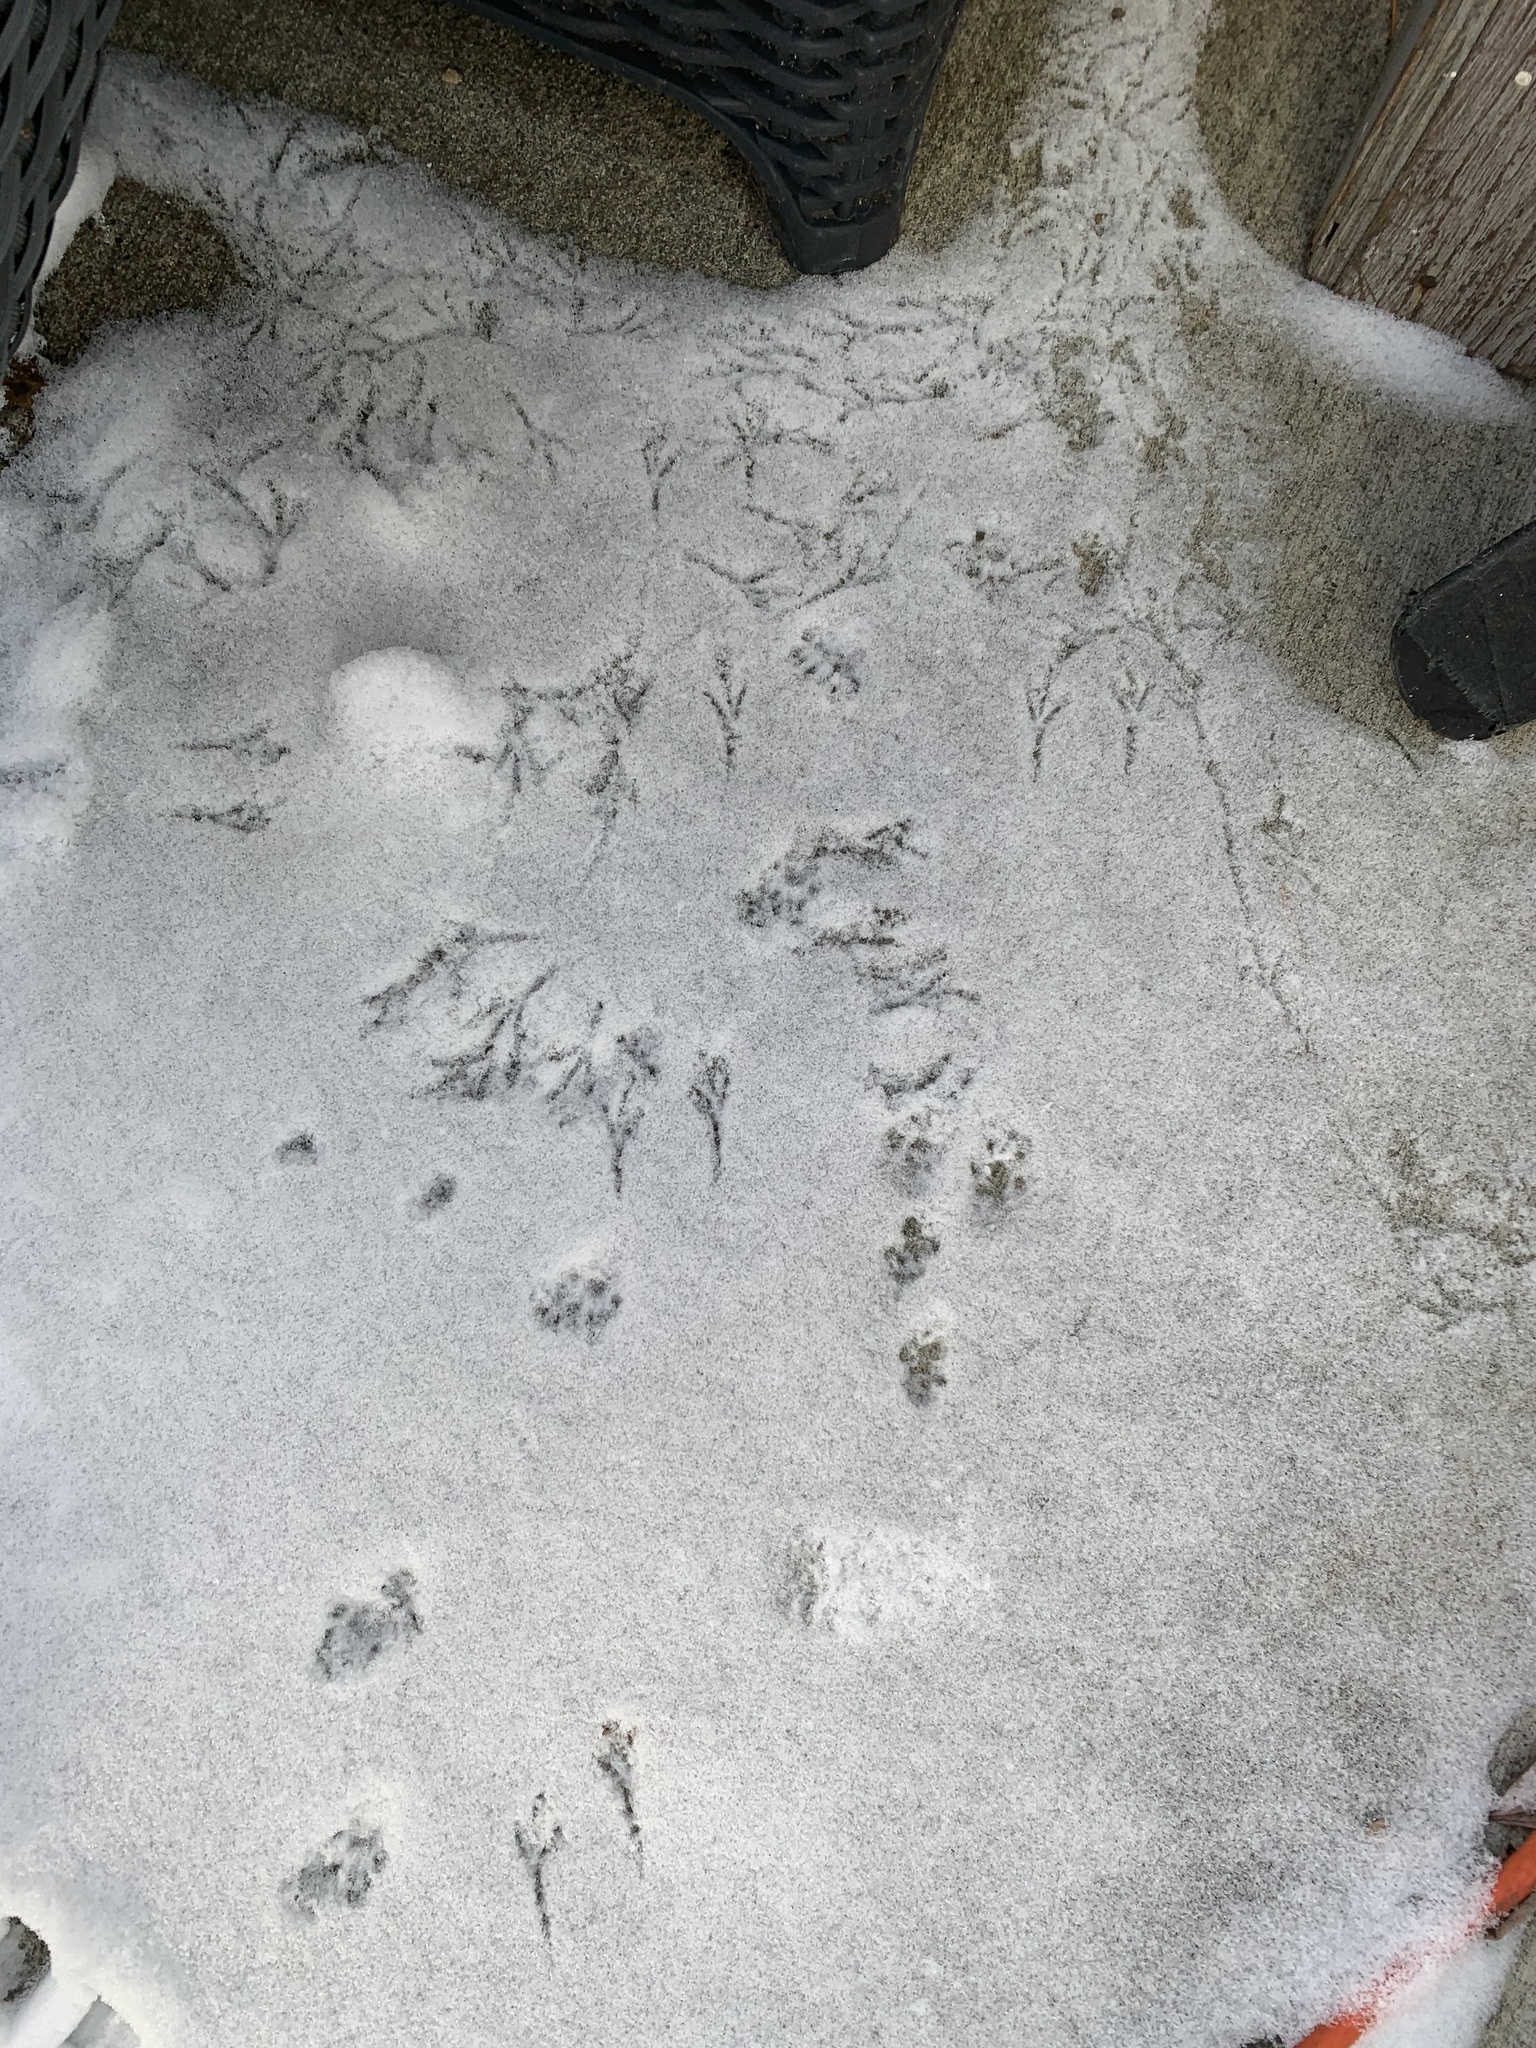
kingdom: Animalia
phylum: Chordata
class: Aves
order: Passeriformes
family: Passerellidae
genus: Junco
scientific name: Junco hyemalis
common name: Dark-eyed junco
